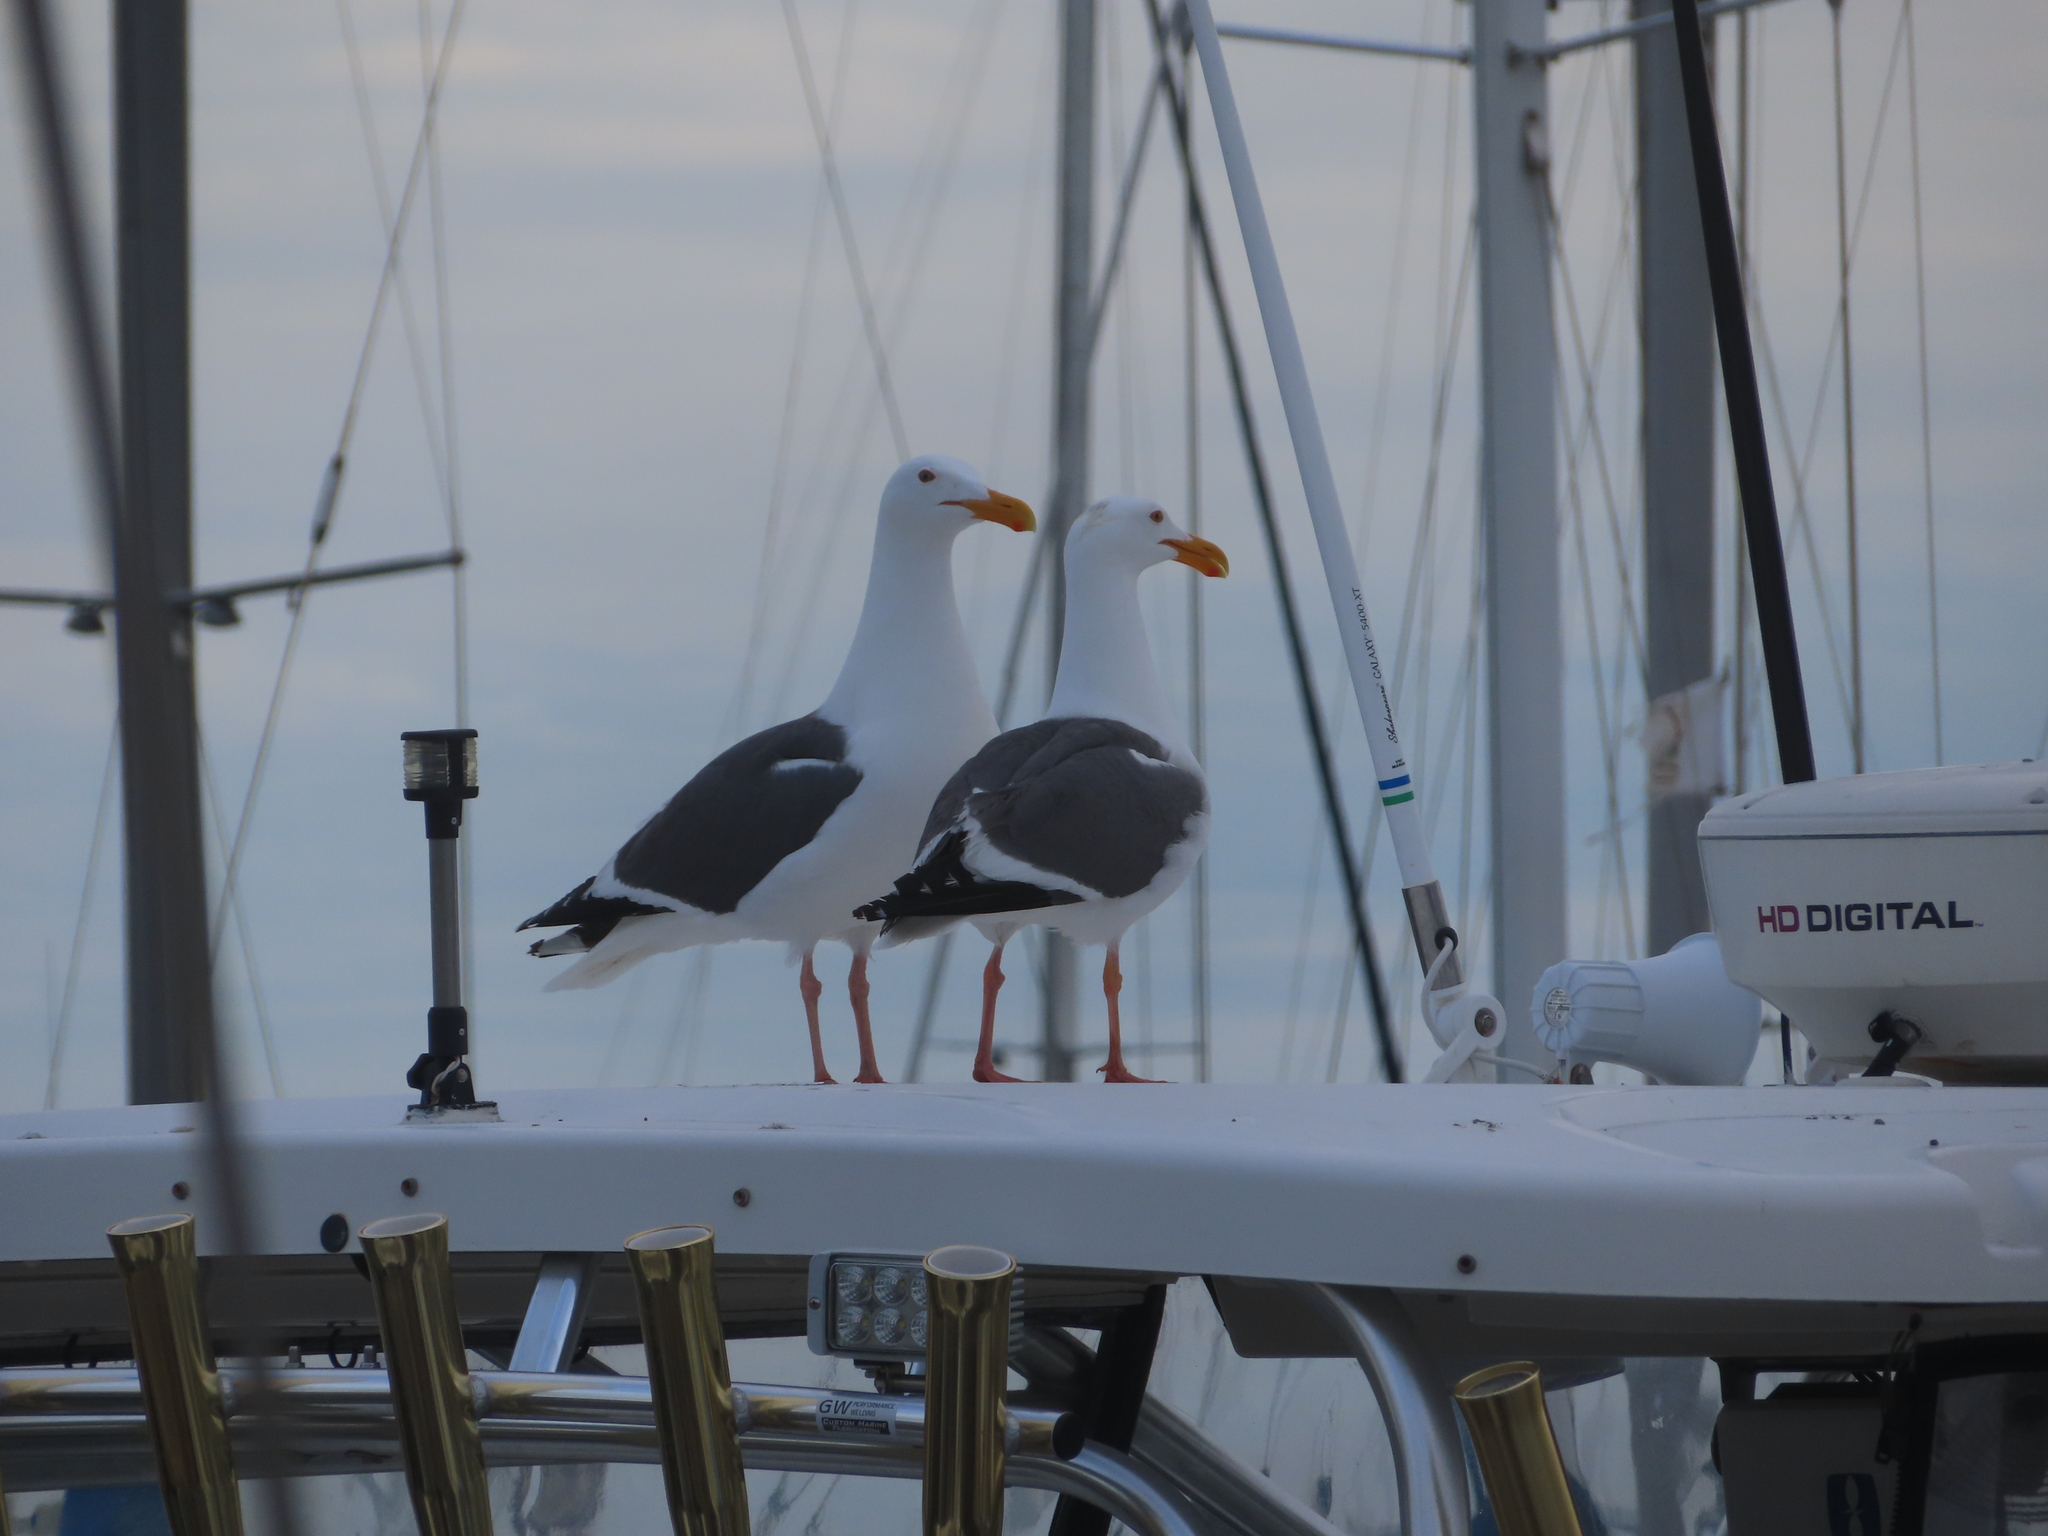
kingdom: Animalia
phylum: Chordata
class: Aves
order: Charadriiformes
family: Laridae
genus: Larus
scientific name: Larus occidentalis
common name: Western gull
